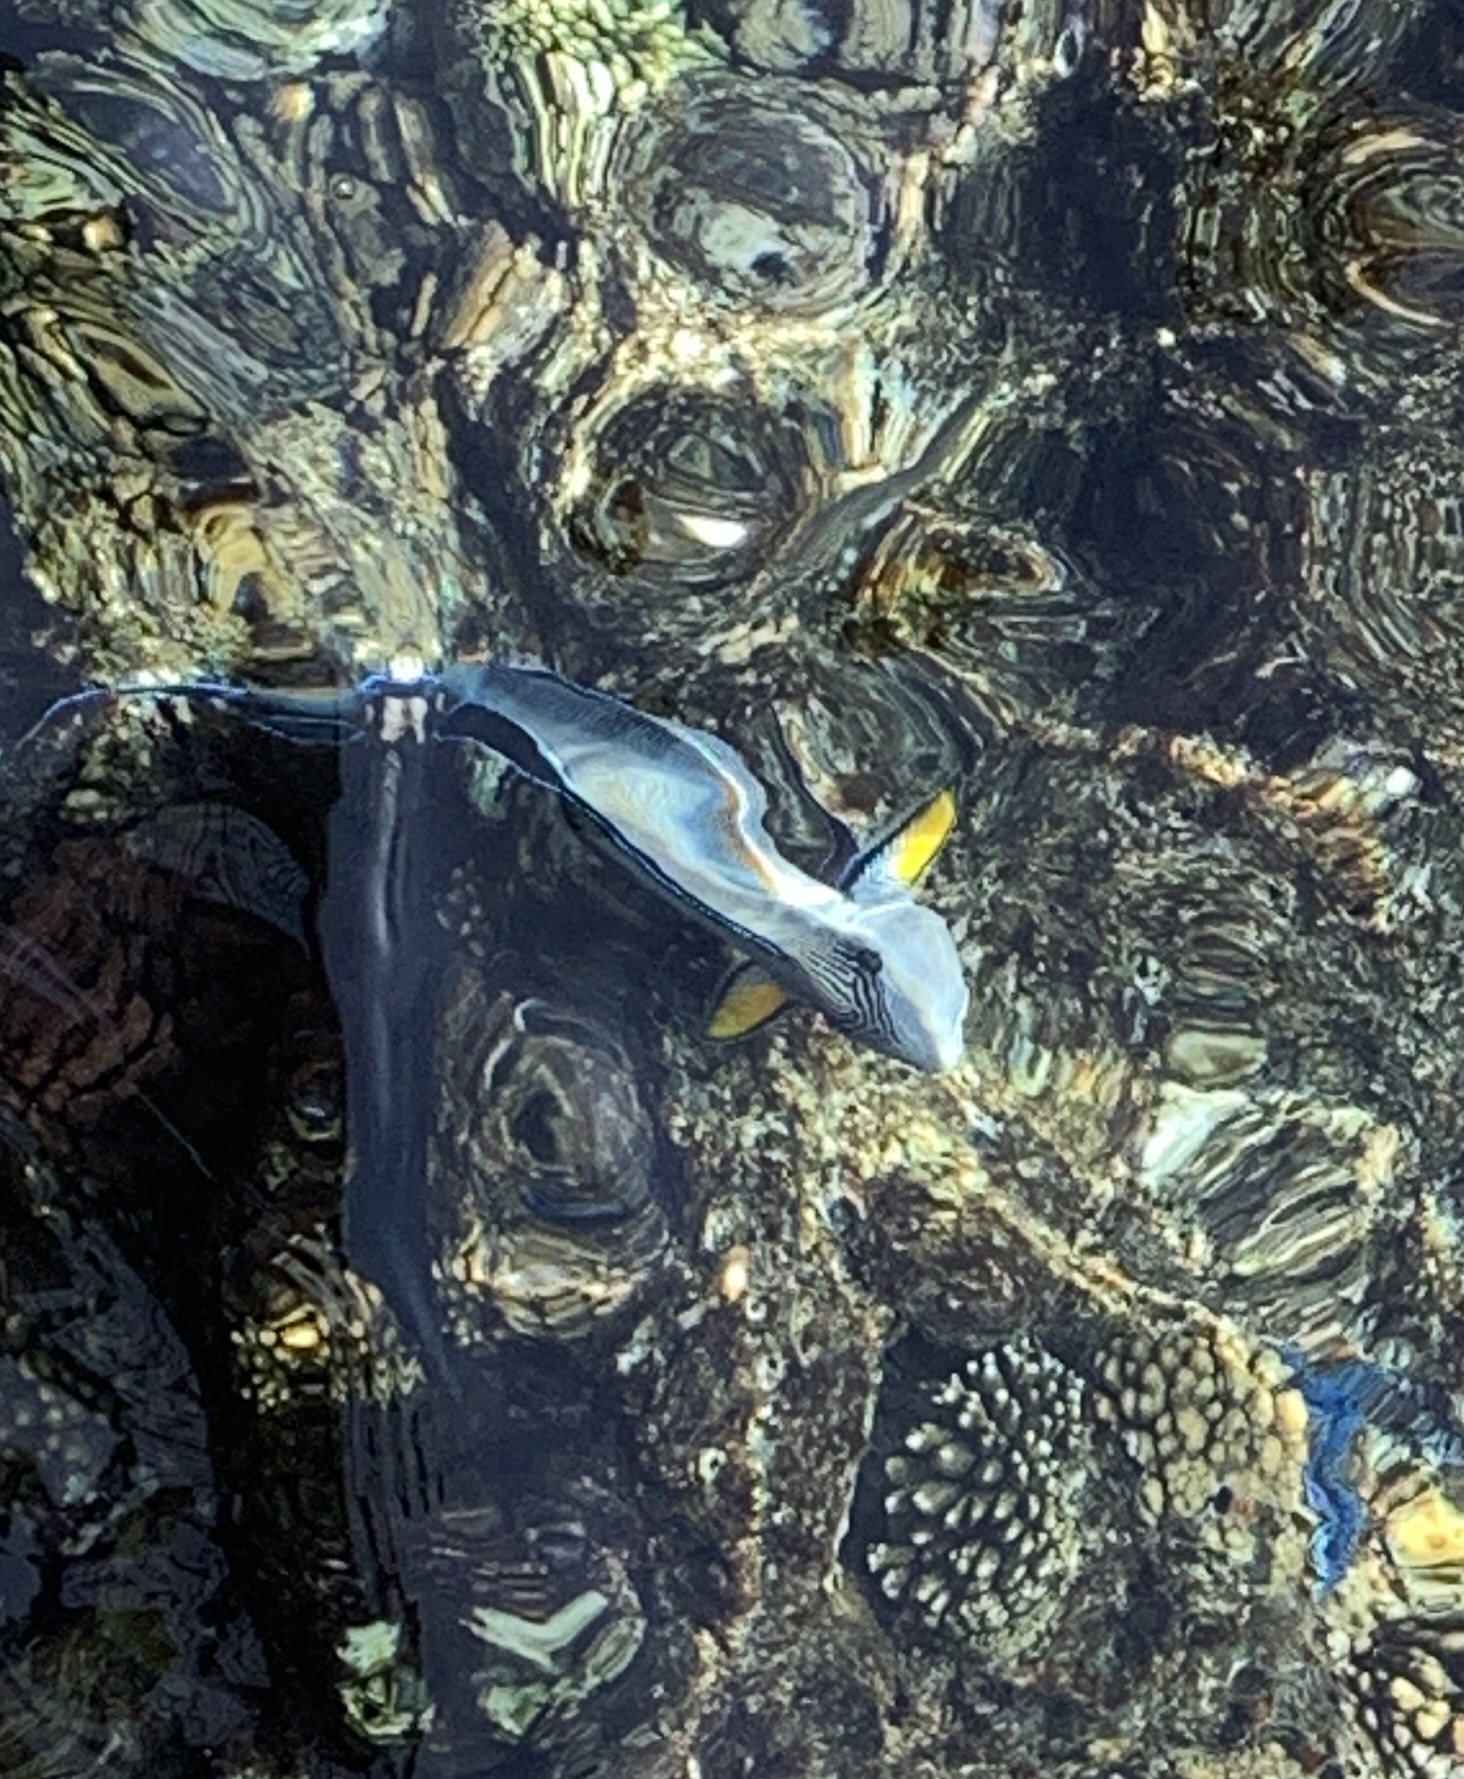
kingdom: Animalia
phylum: Chordata
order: Perciformes
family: Acanthuridae
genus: Acanthurus
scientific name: Acanthurus sohal
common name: Red sea surgeonfish
